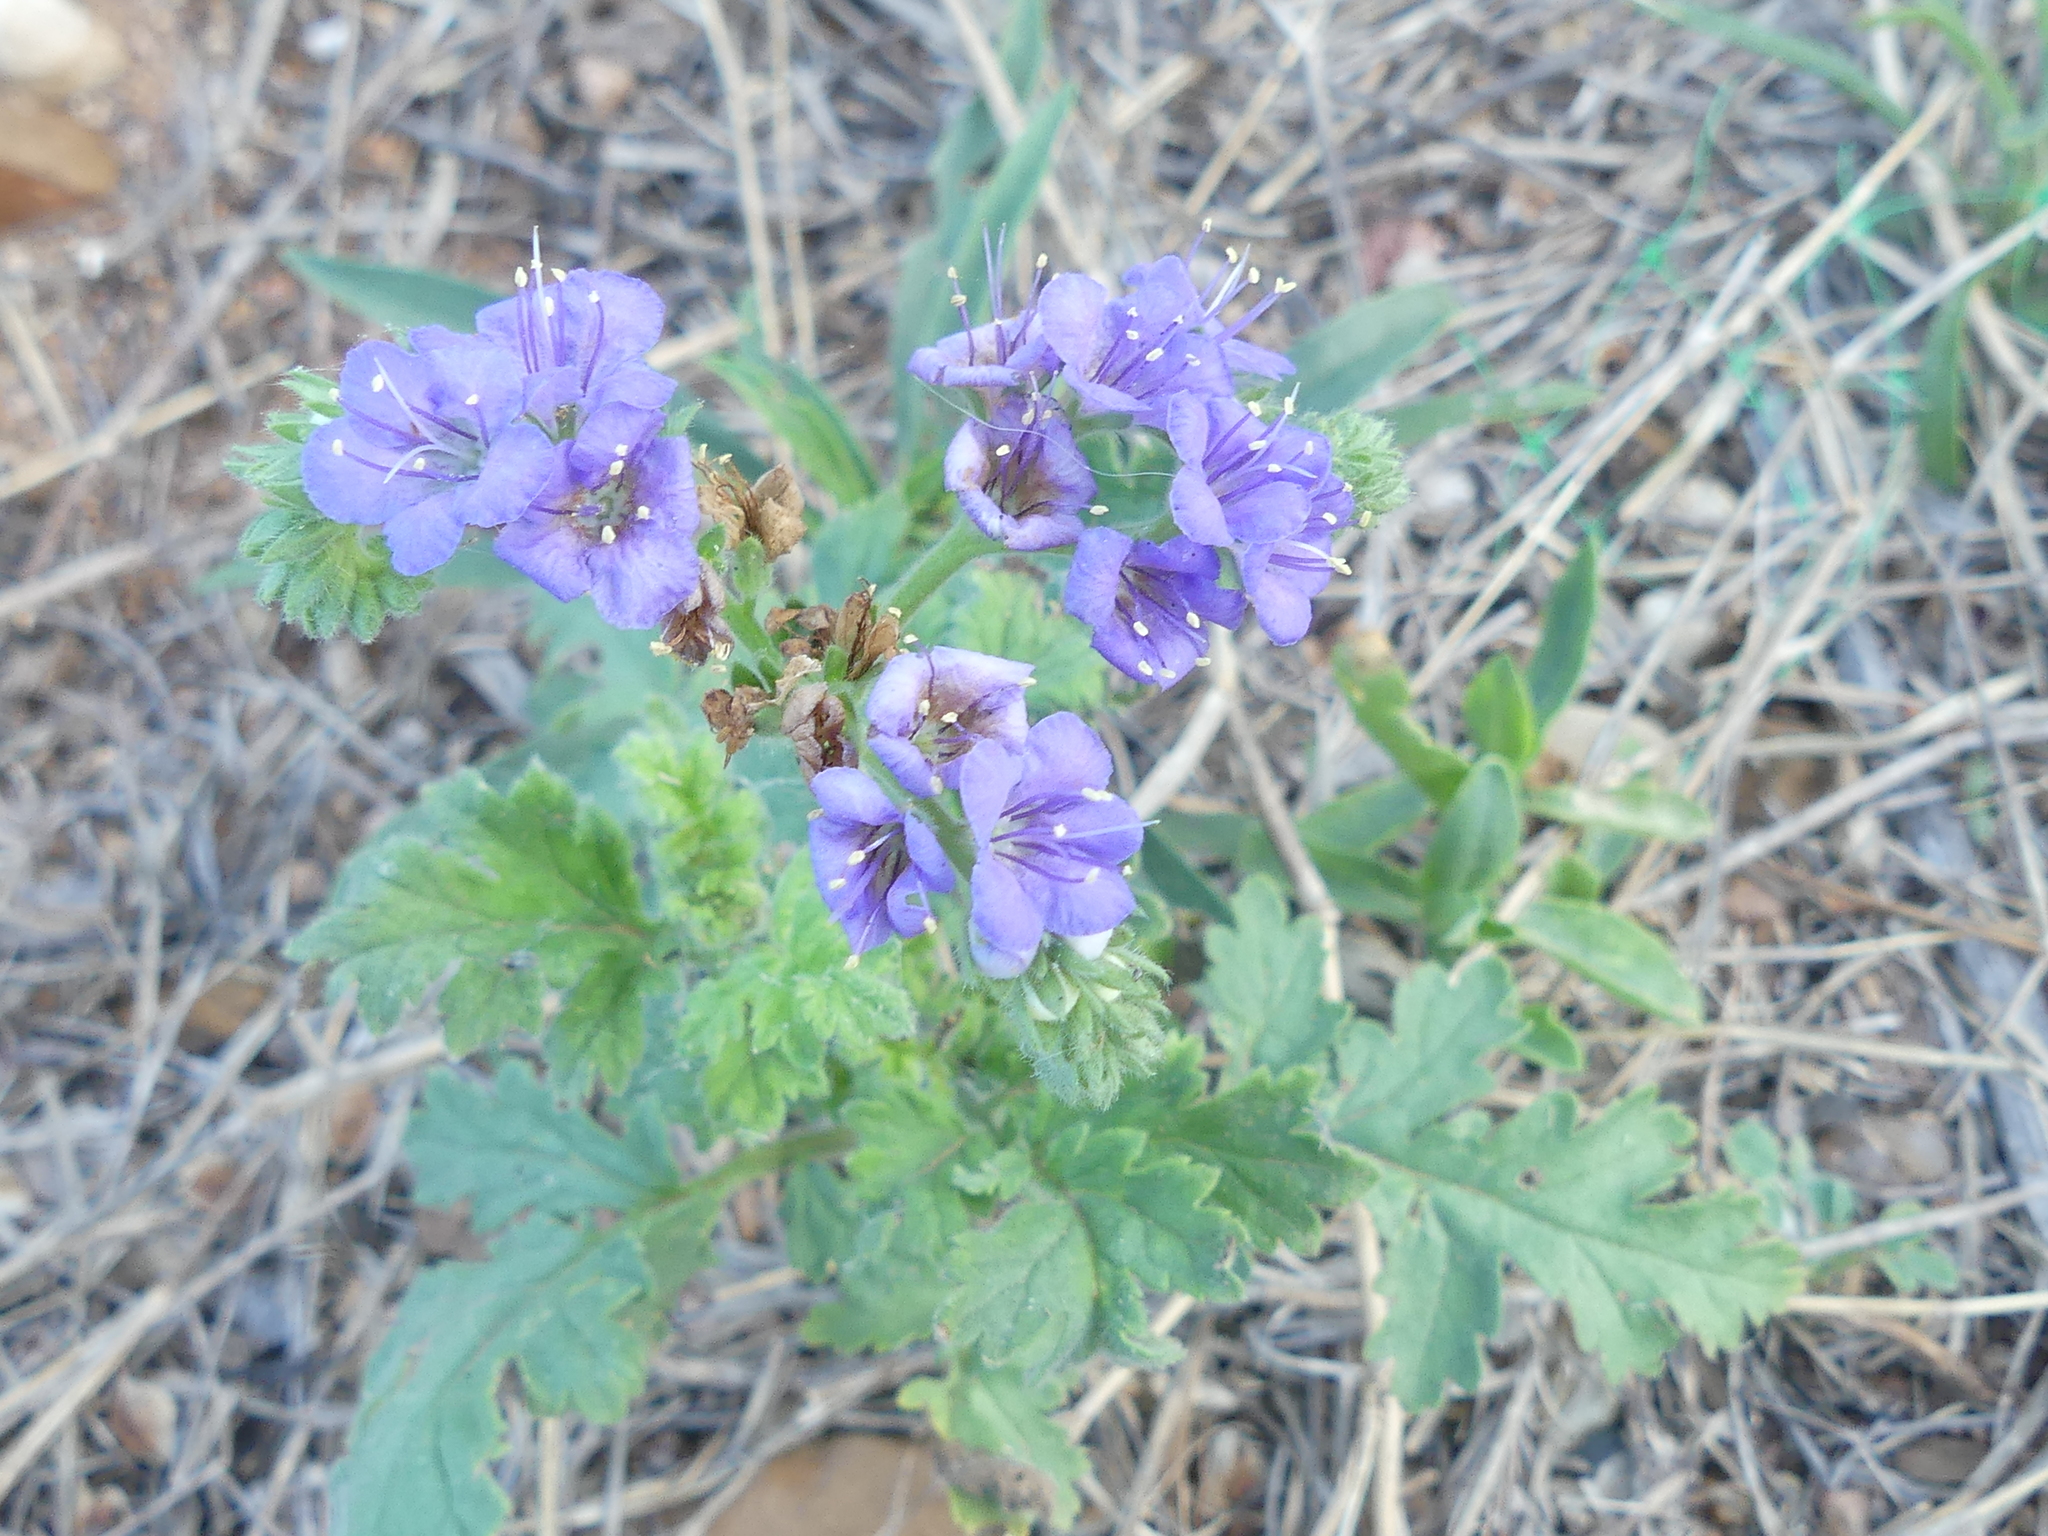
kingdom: Plantae
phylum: Tracheophyta
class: Magnoliopsida
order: Boraginales
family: Hydrophyllaceae
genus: Phacelia
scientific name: Phacelia congesta
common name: Blue curls
